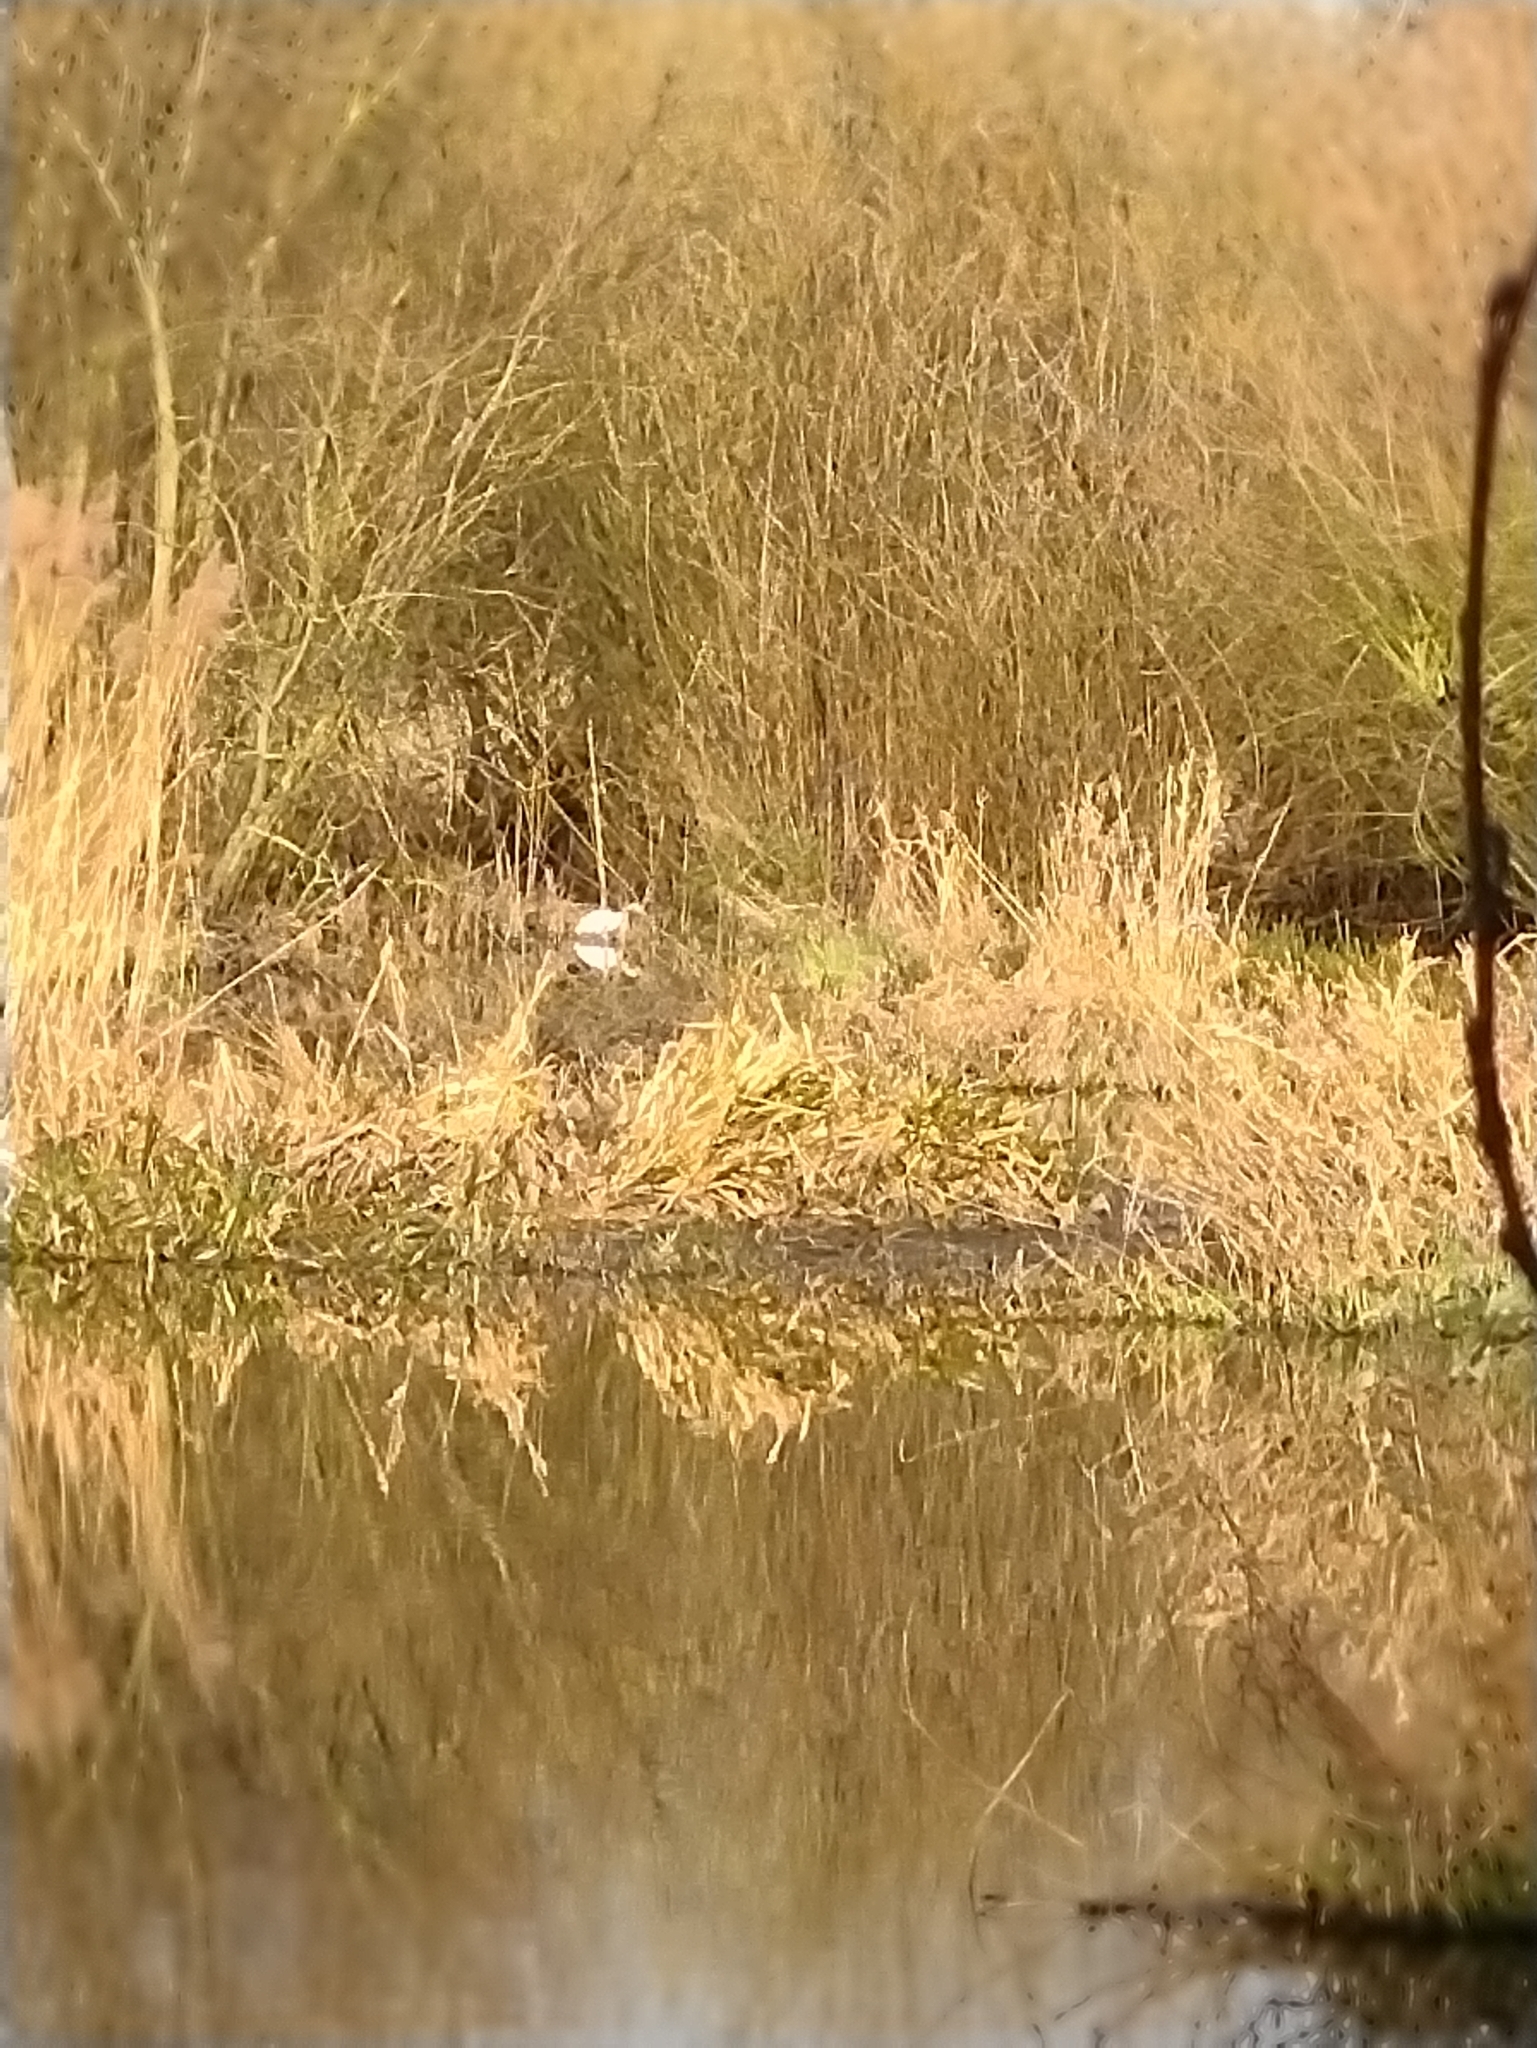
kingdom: Animalia
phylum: Chordata
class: Aves
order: Pelecaniformes
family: Ardeidae
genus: Egretta
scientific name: Egretta garzetta
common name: Little egret
